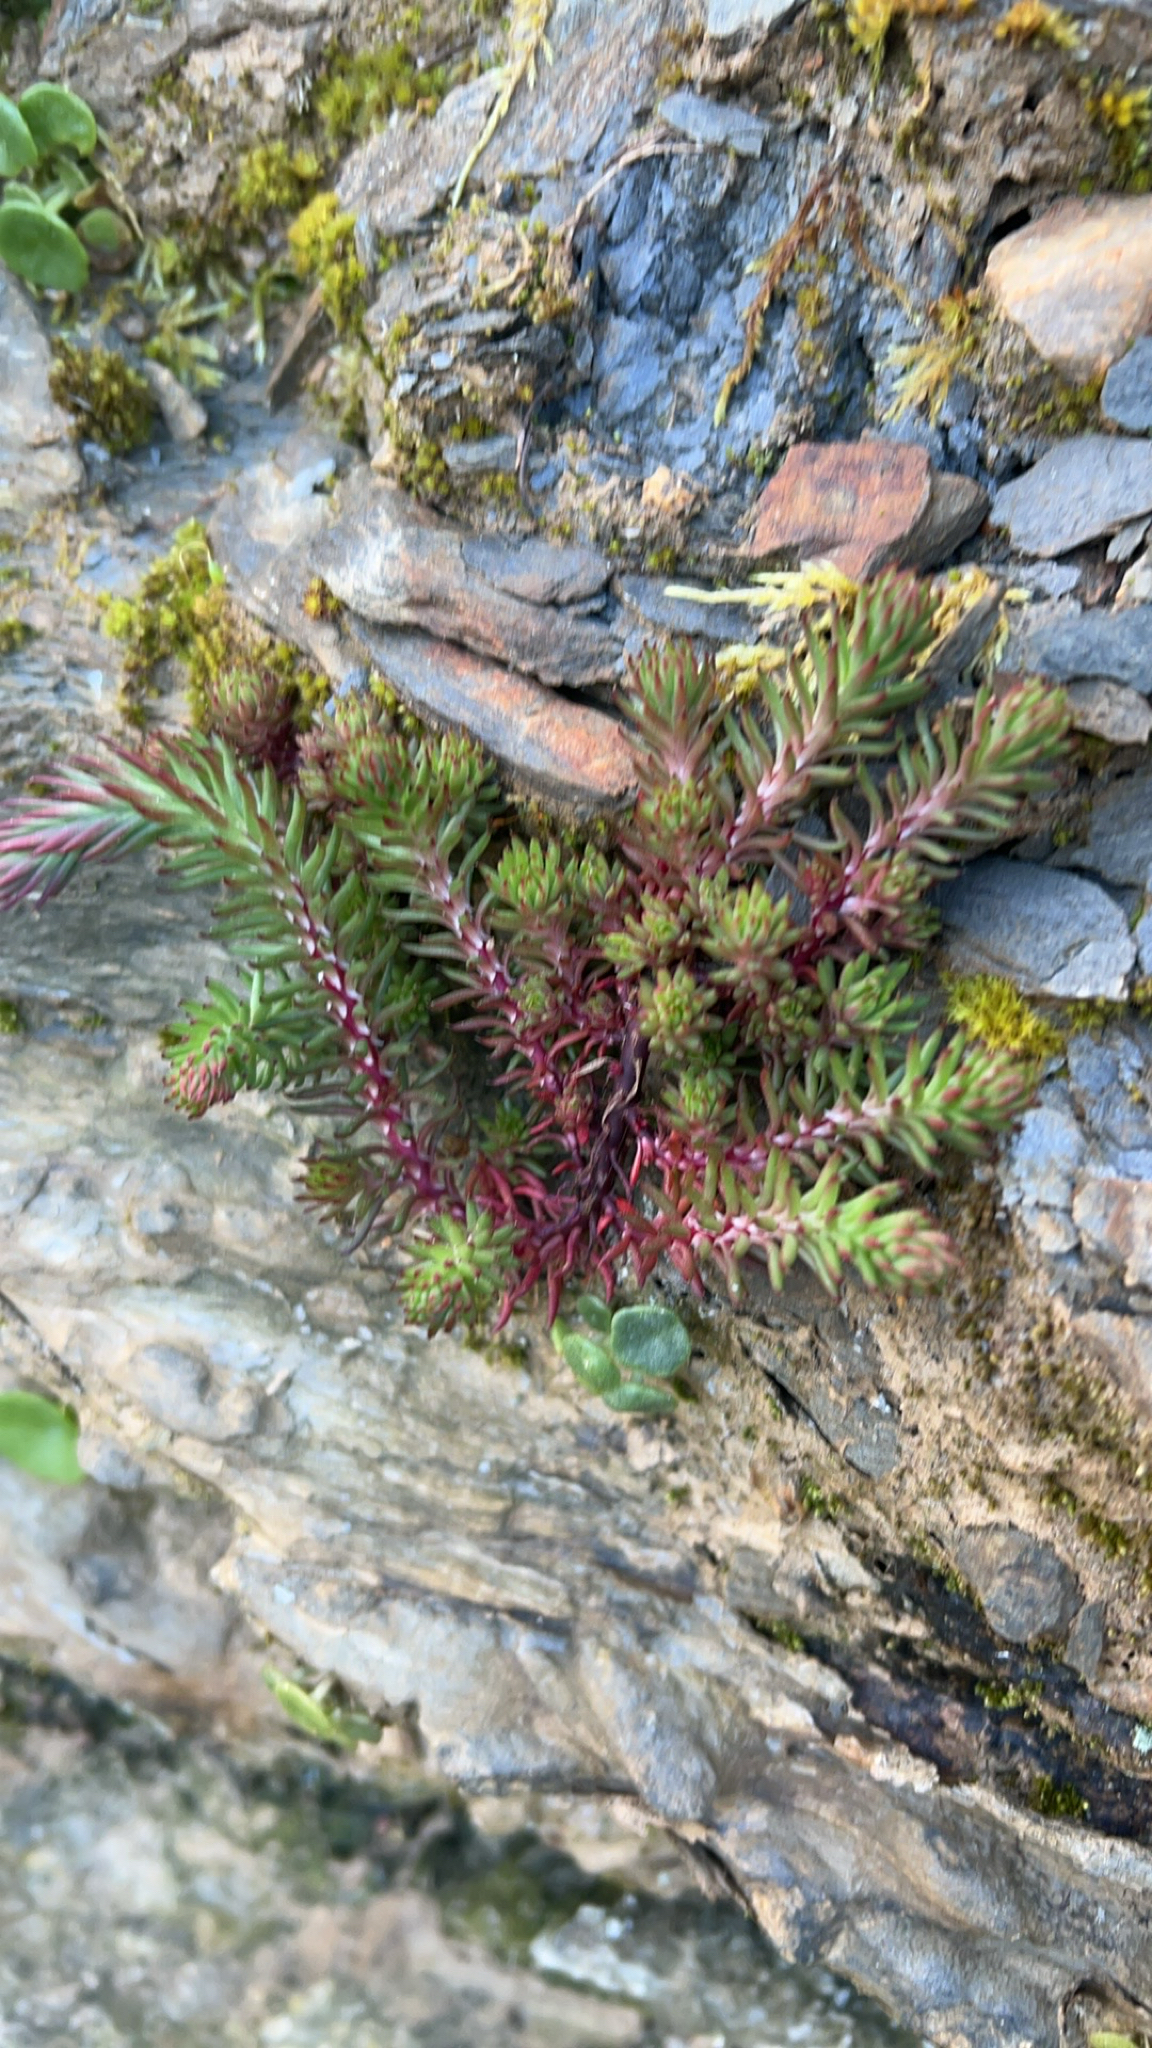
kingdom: Plantae
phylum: Tracheophyta
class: Magnoliopsida
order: Saxifragales
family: Crassulaceae
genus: Petrosedum
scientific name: Petrosedum forsterianum
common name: Forster's stonecrop
